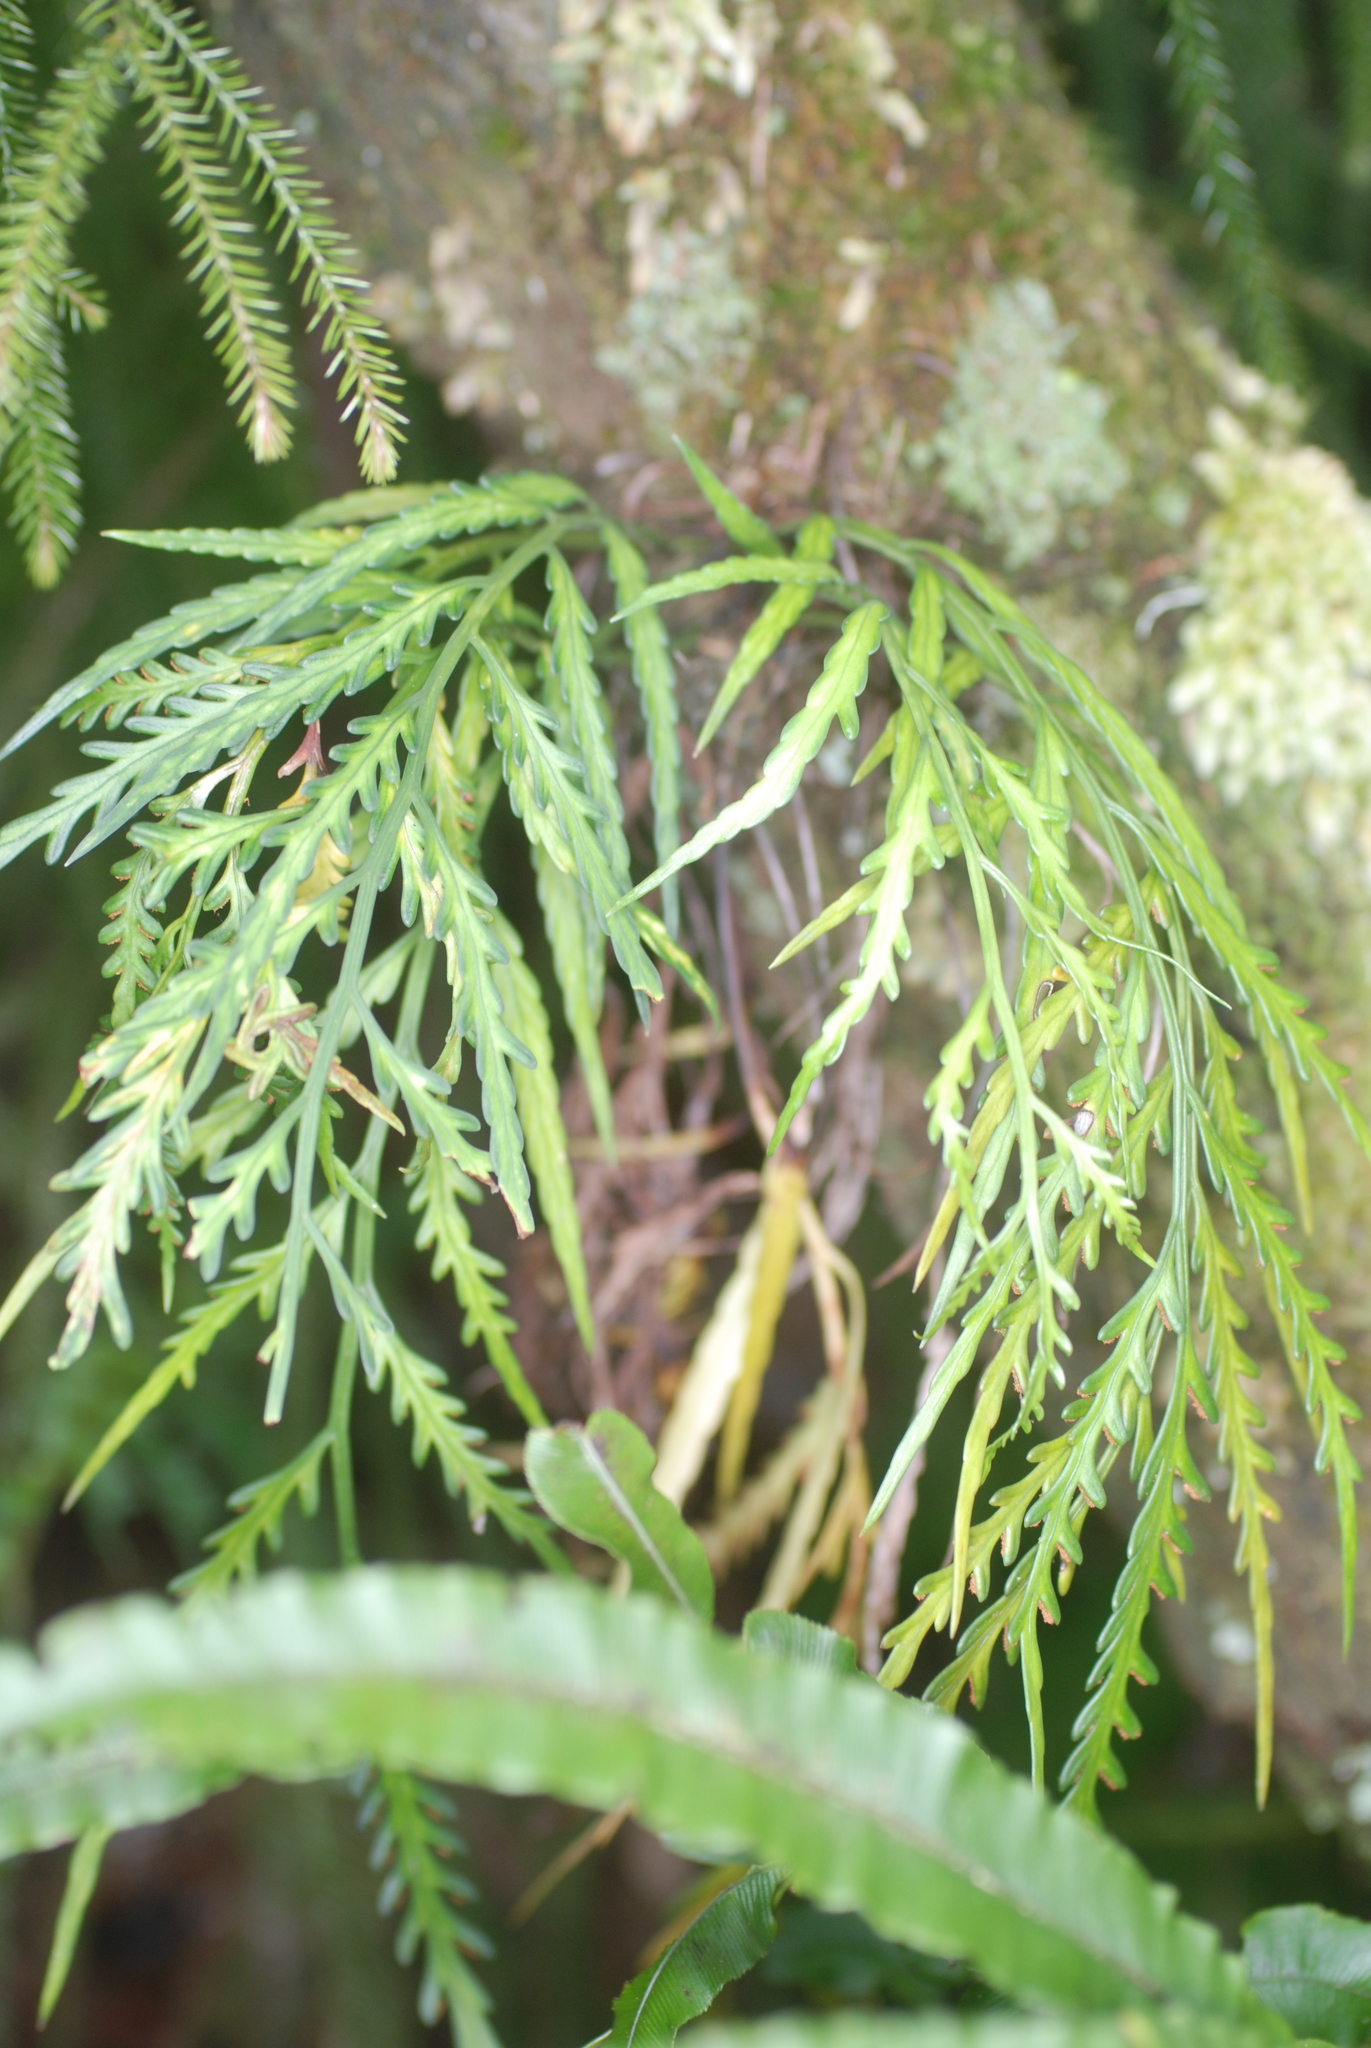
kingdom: Plantae
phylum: Tracheophyta
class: Polypodiopsida
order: Polypodiales
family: Aspleniaceae
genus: Asplenium
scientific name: Asplenium flaccidum
